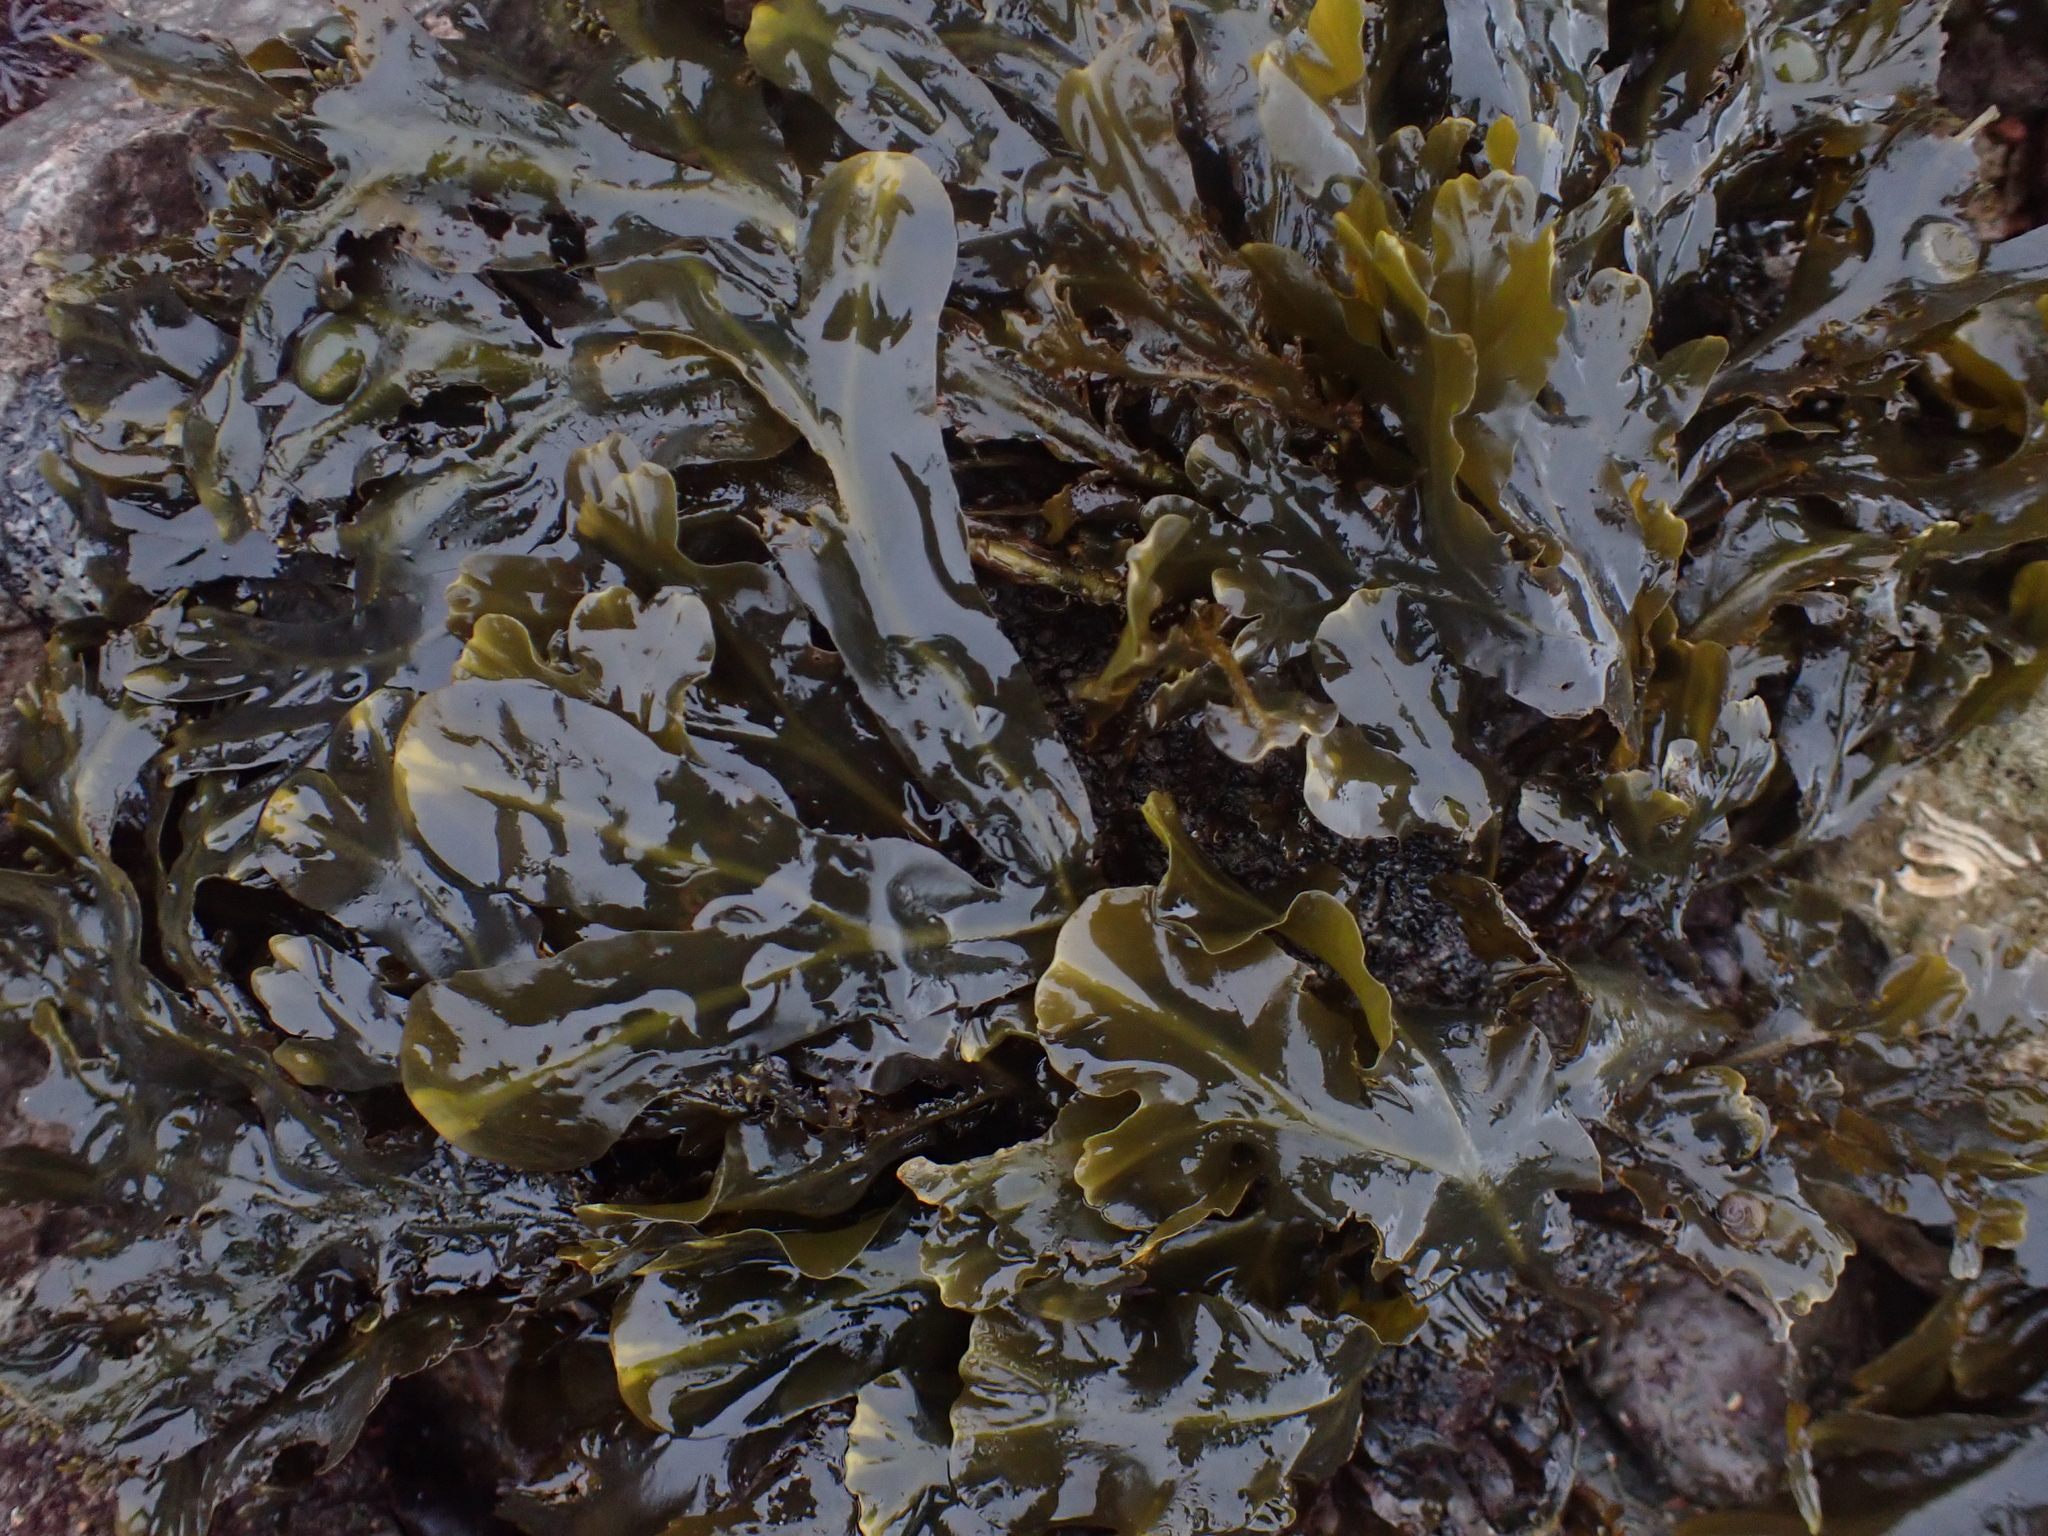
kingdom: Chromista
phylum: Ochrophyta
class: Phaeophyceae
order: Fucales
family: Fucaceae
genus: Fucus
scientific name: Fucus vesiculosus
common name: Bladder wrack
